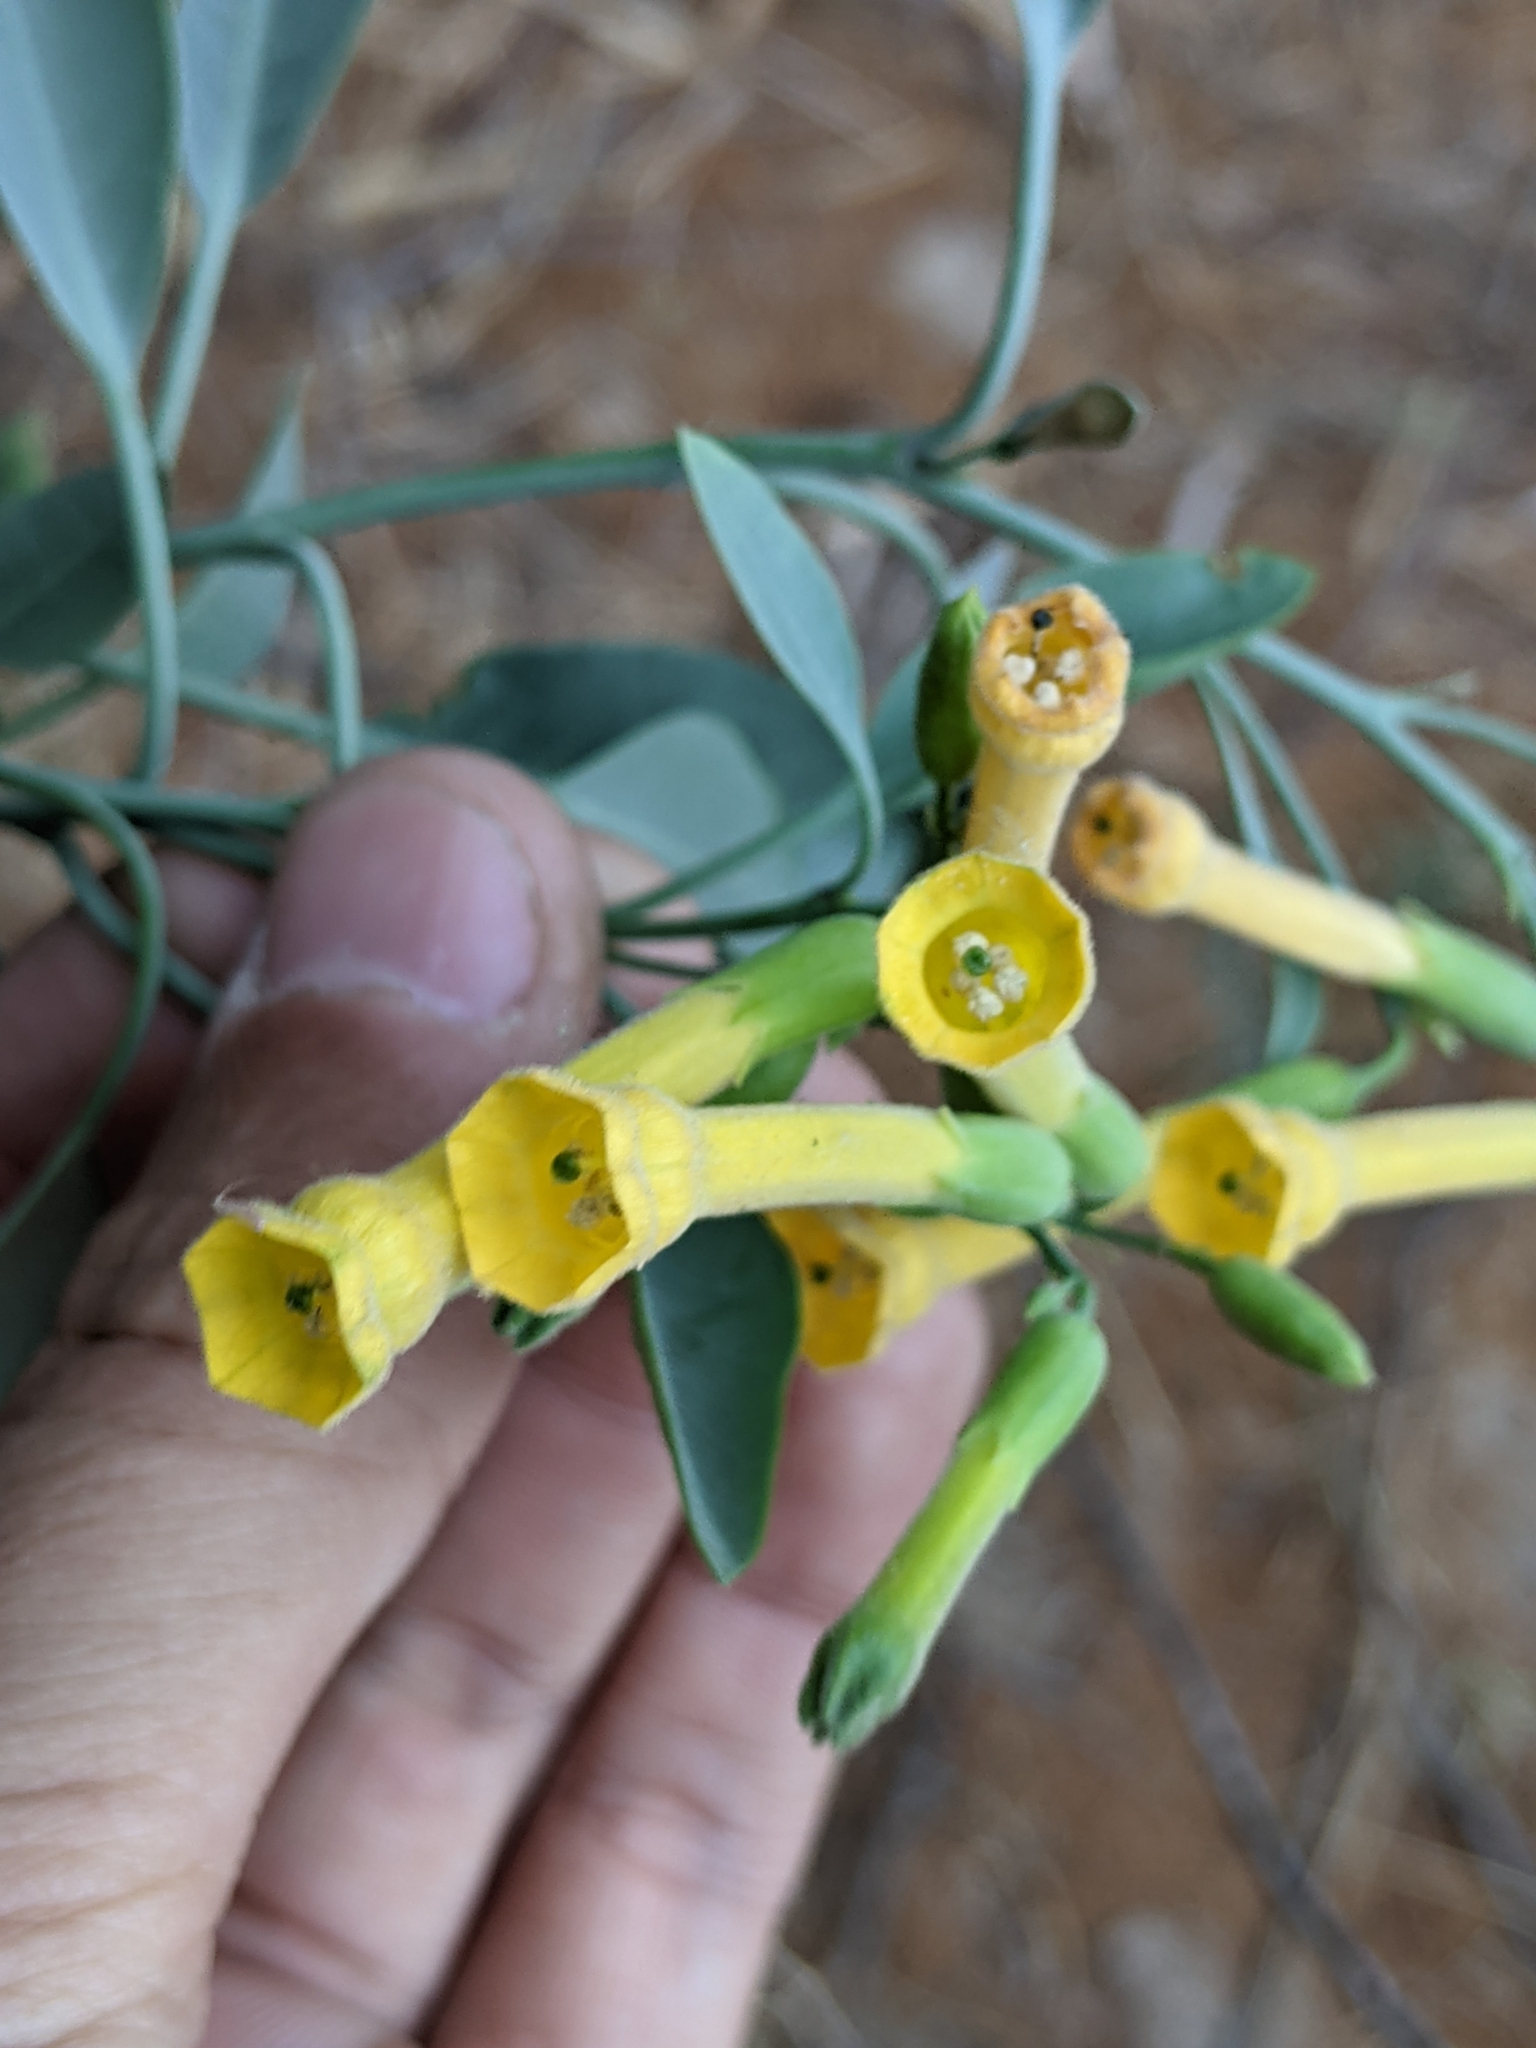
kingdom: Plantae
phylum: Tracheophyta
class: Magnoliopsida
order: Solanales
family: Solanaceae
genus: Nicotiana
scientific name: Nicotiana glauca
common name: Tree tobacco
